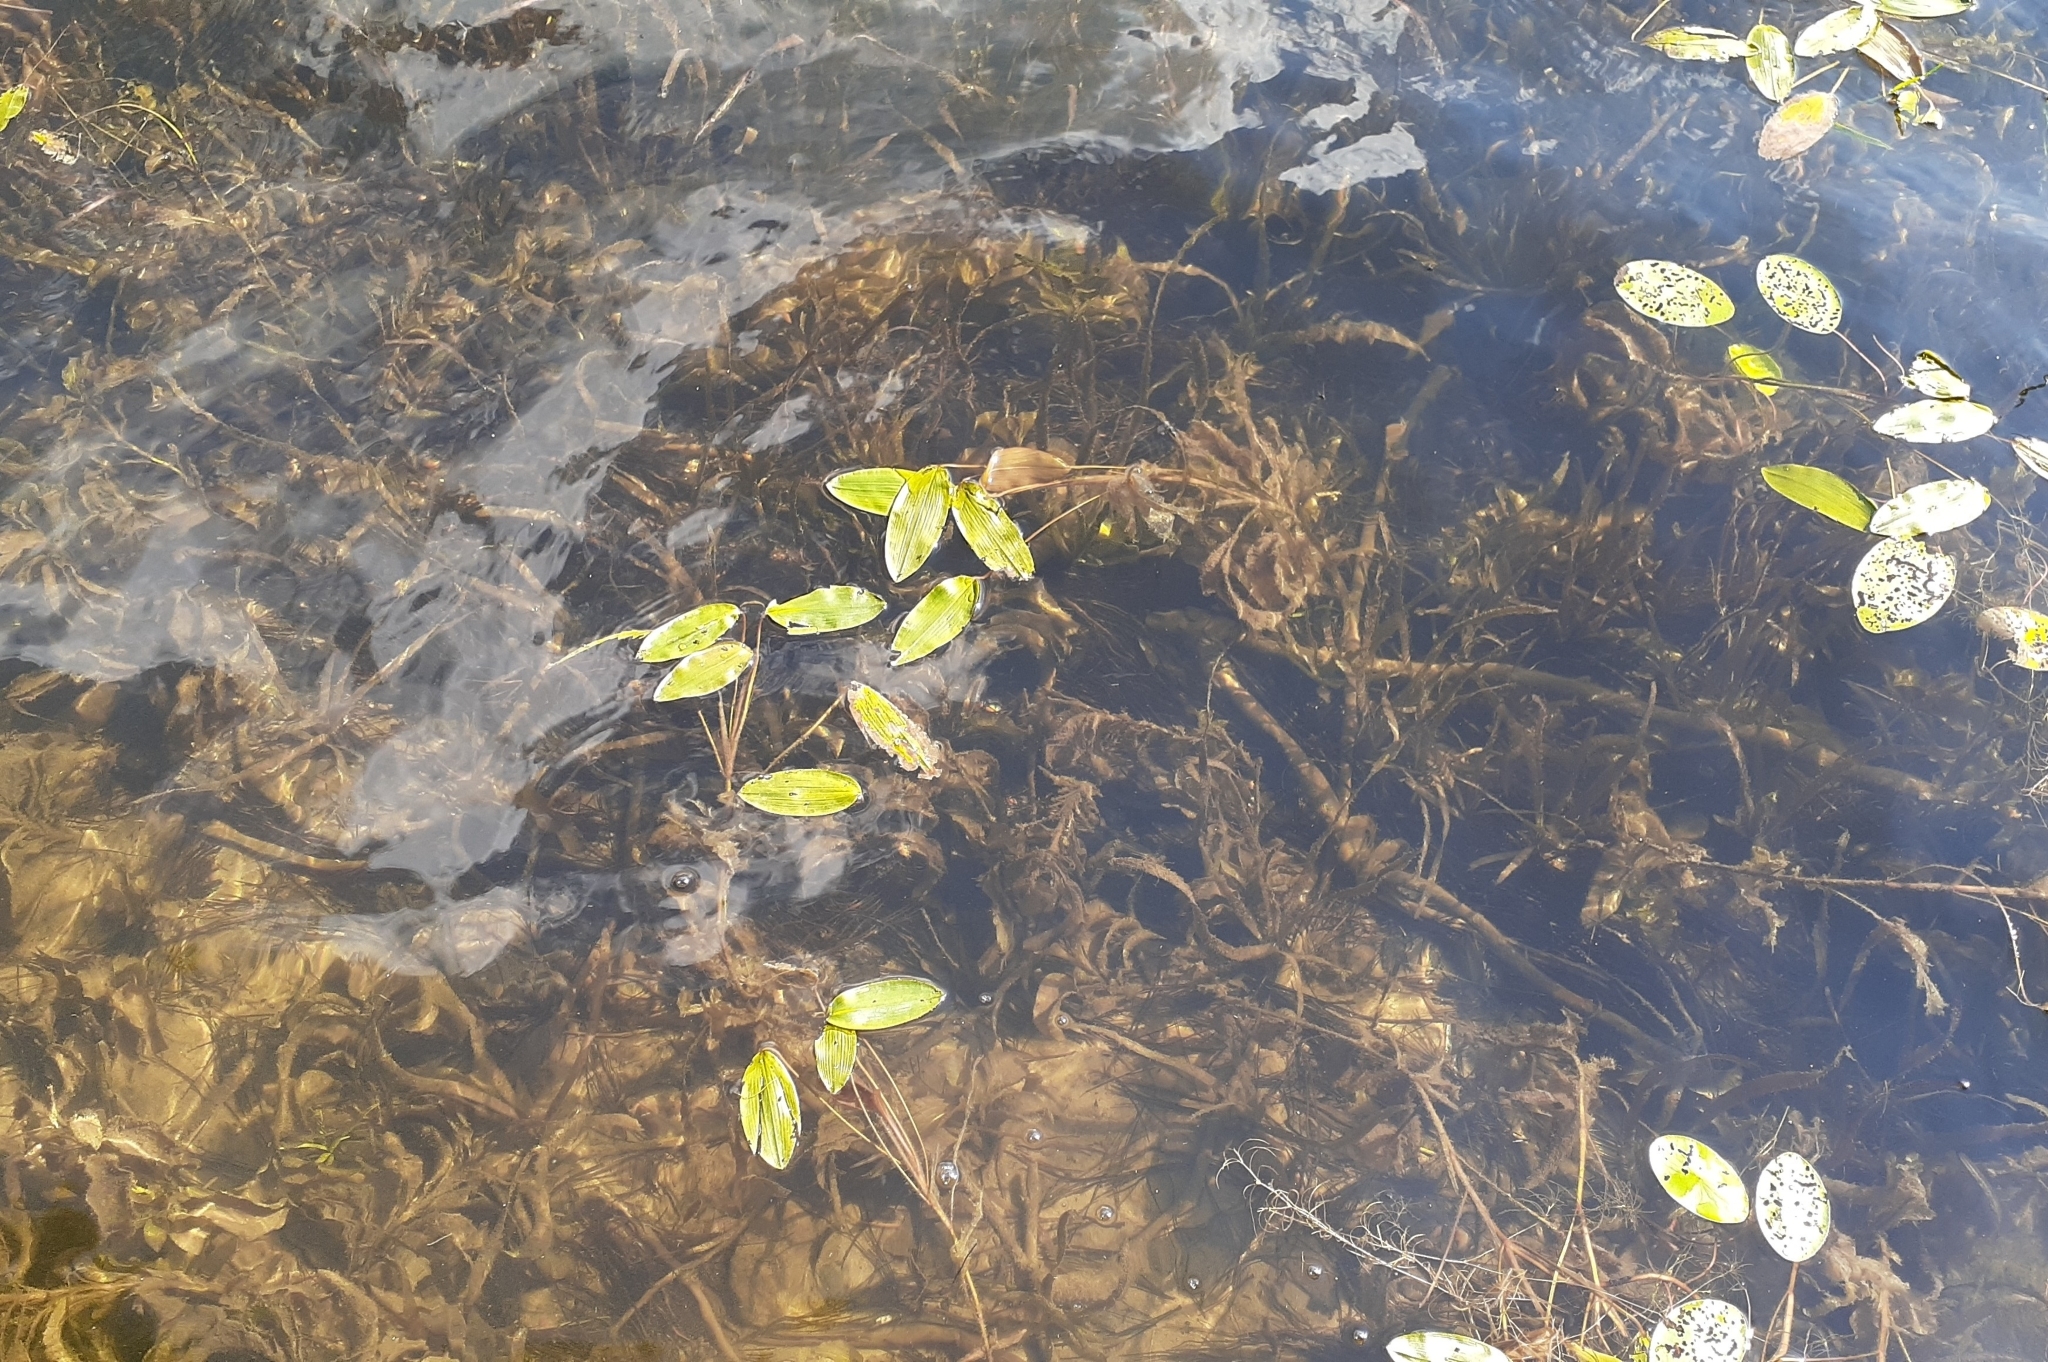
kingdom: Plantae
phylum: Tracheophyta
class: Liliopsida
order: Alismatales
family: Potamogetonaceae
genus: Potamogeton
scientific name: Potamogeton amplifolius
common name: Broad-leaved pondweed
